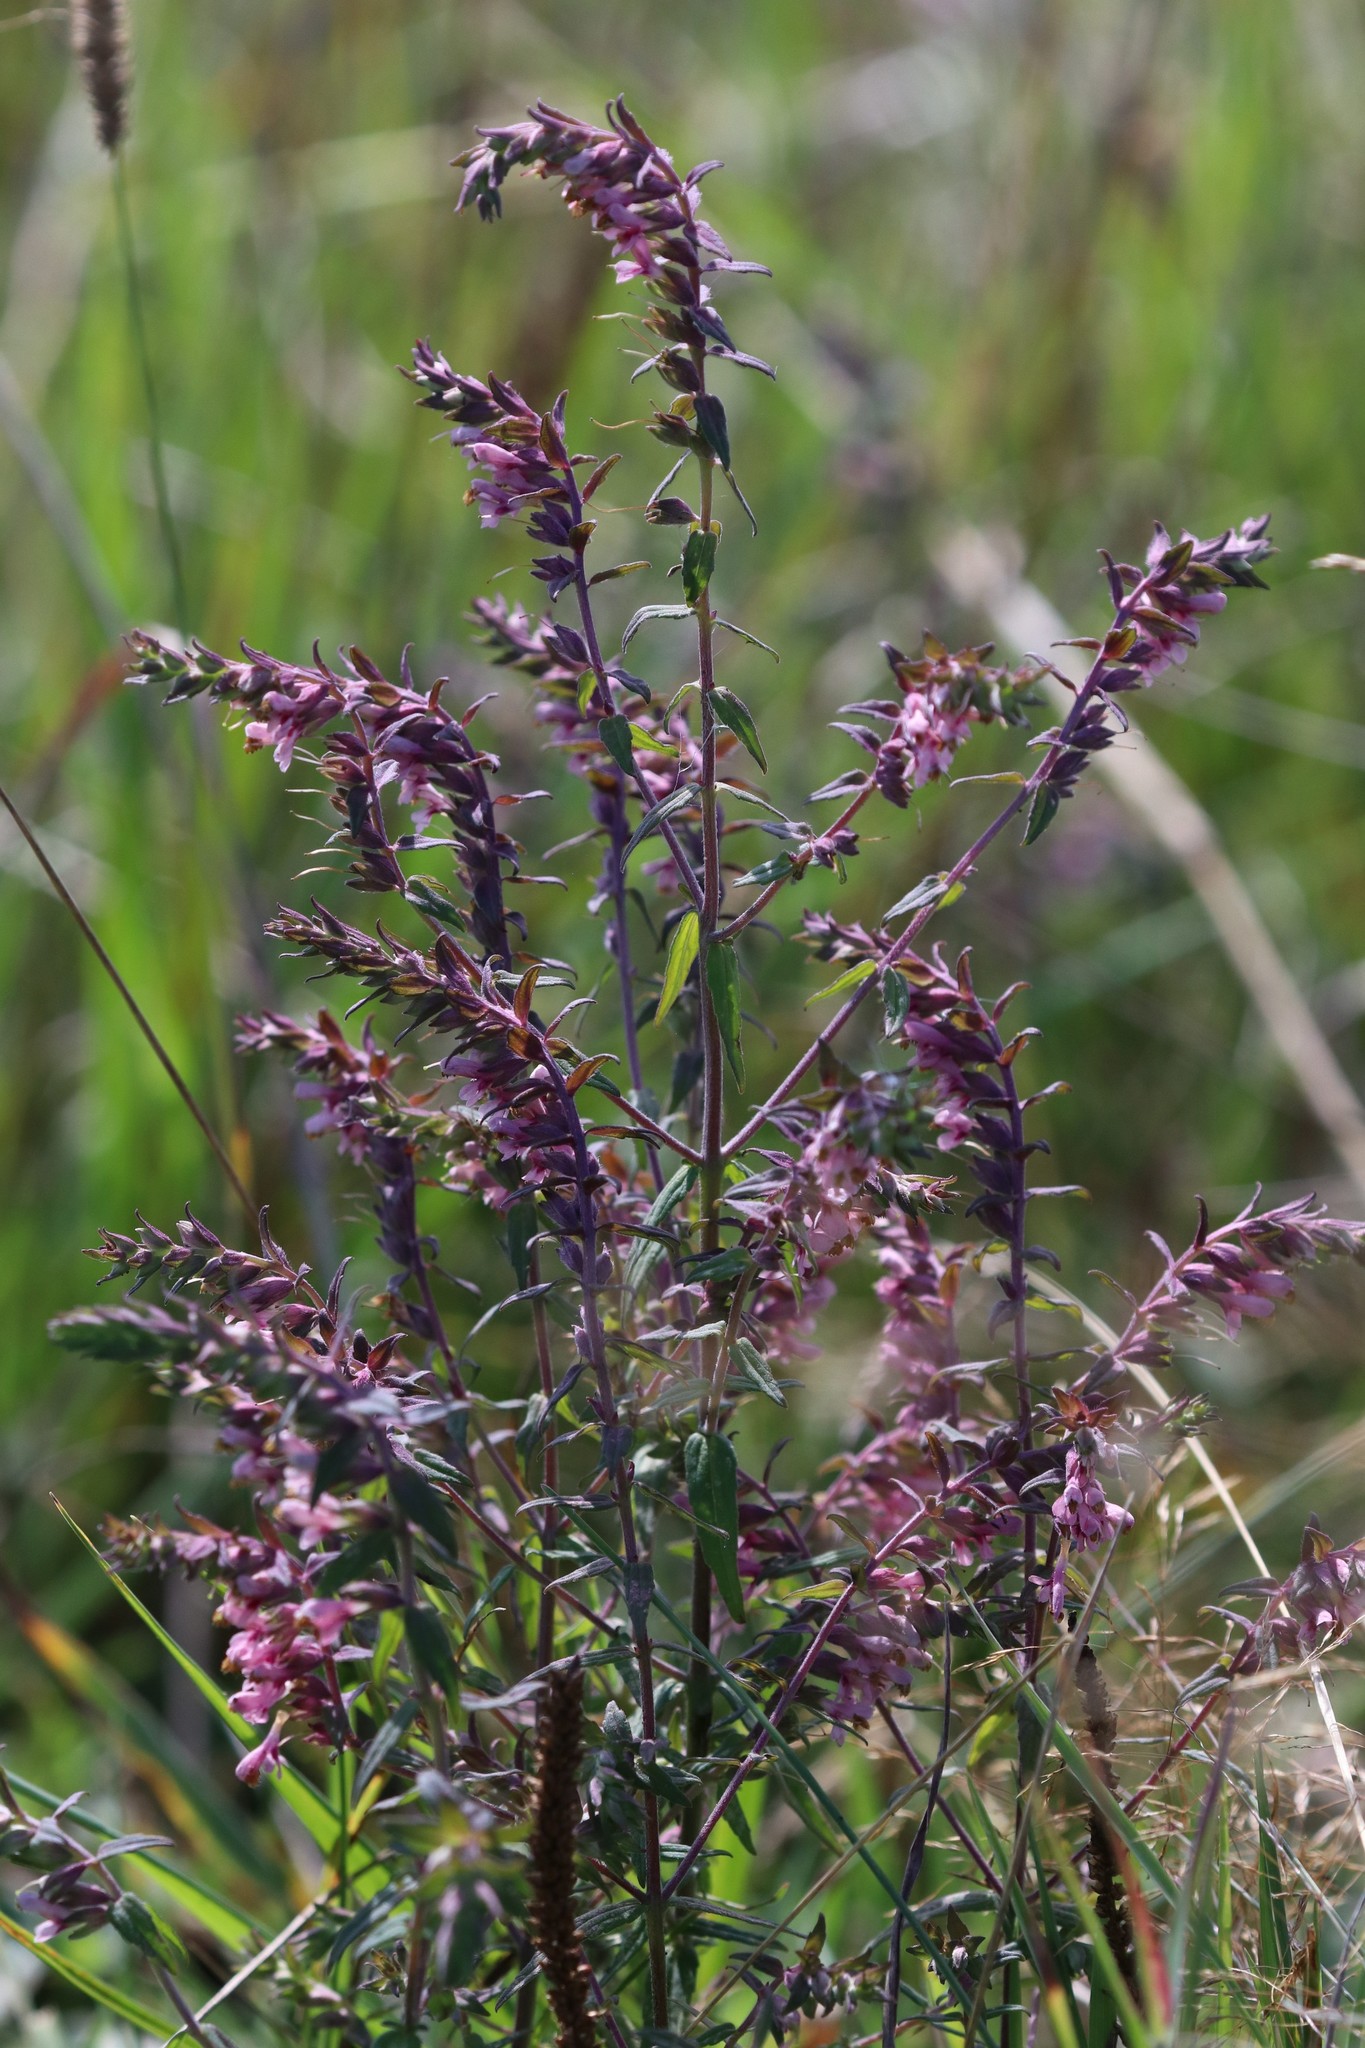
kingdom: Plantae
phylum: Tracheophyta
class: Magnoliopsida
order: Lamiales
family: Orobanchaceae
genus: Odontites
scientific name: Odontites vulgaris
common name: Broomrape
